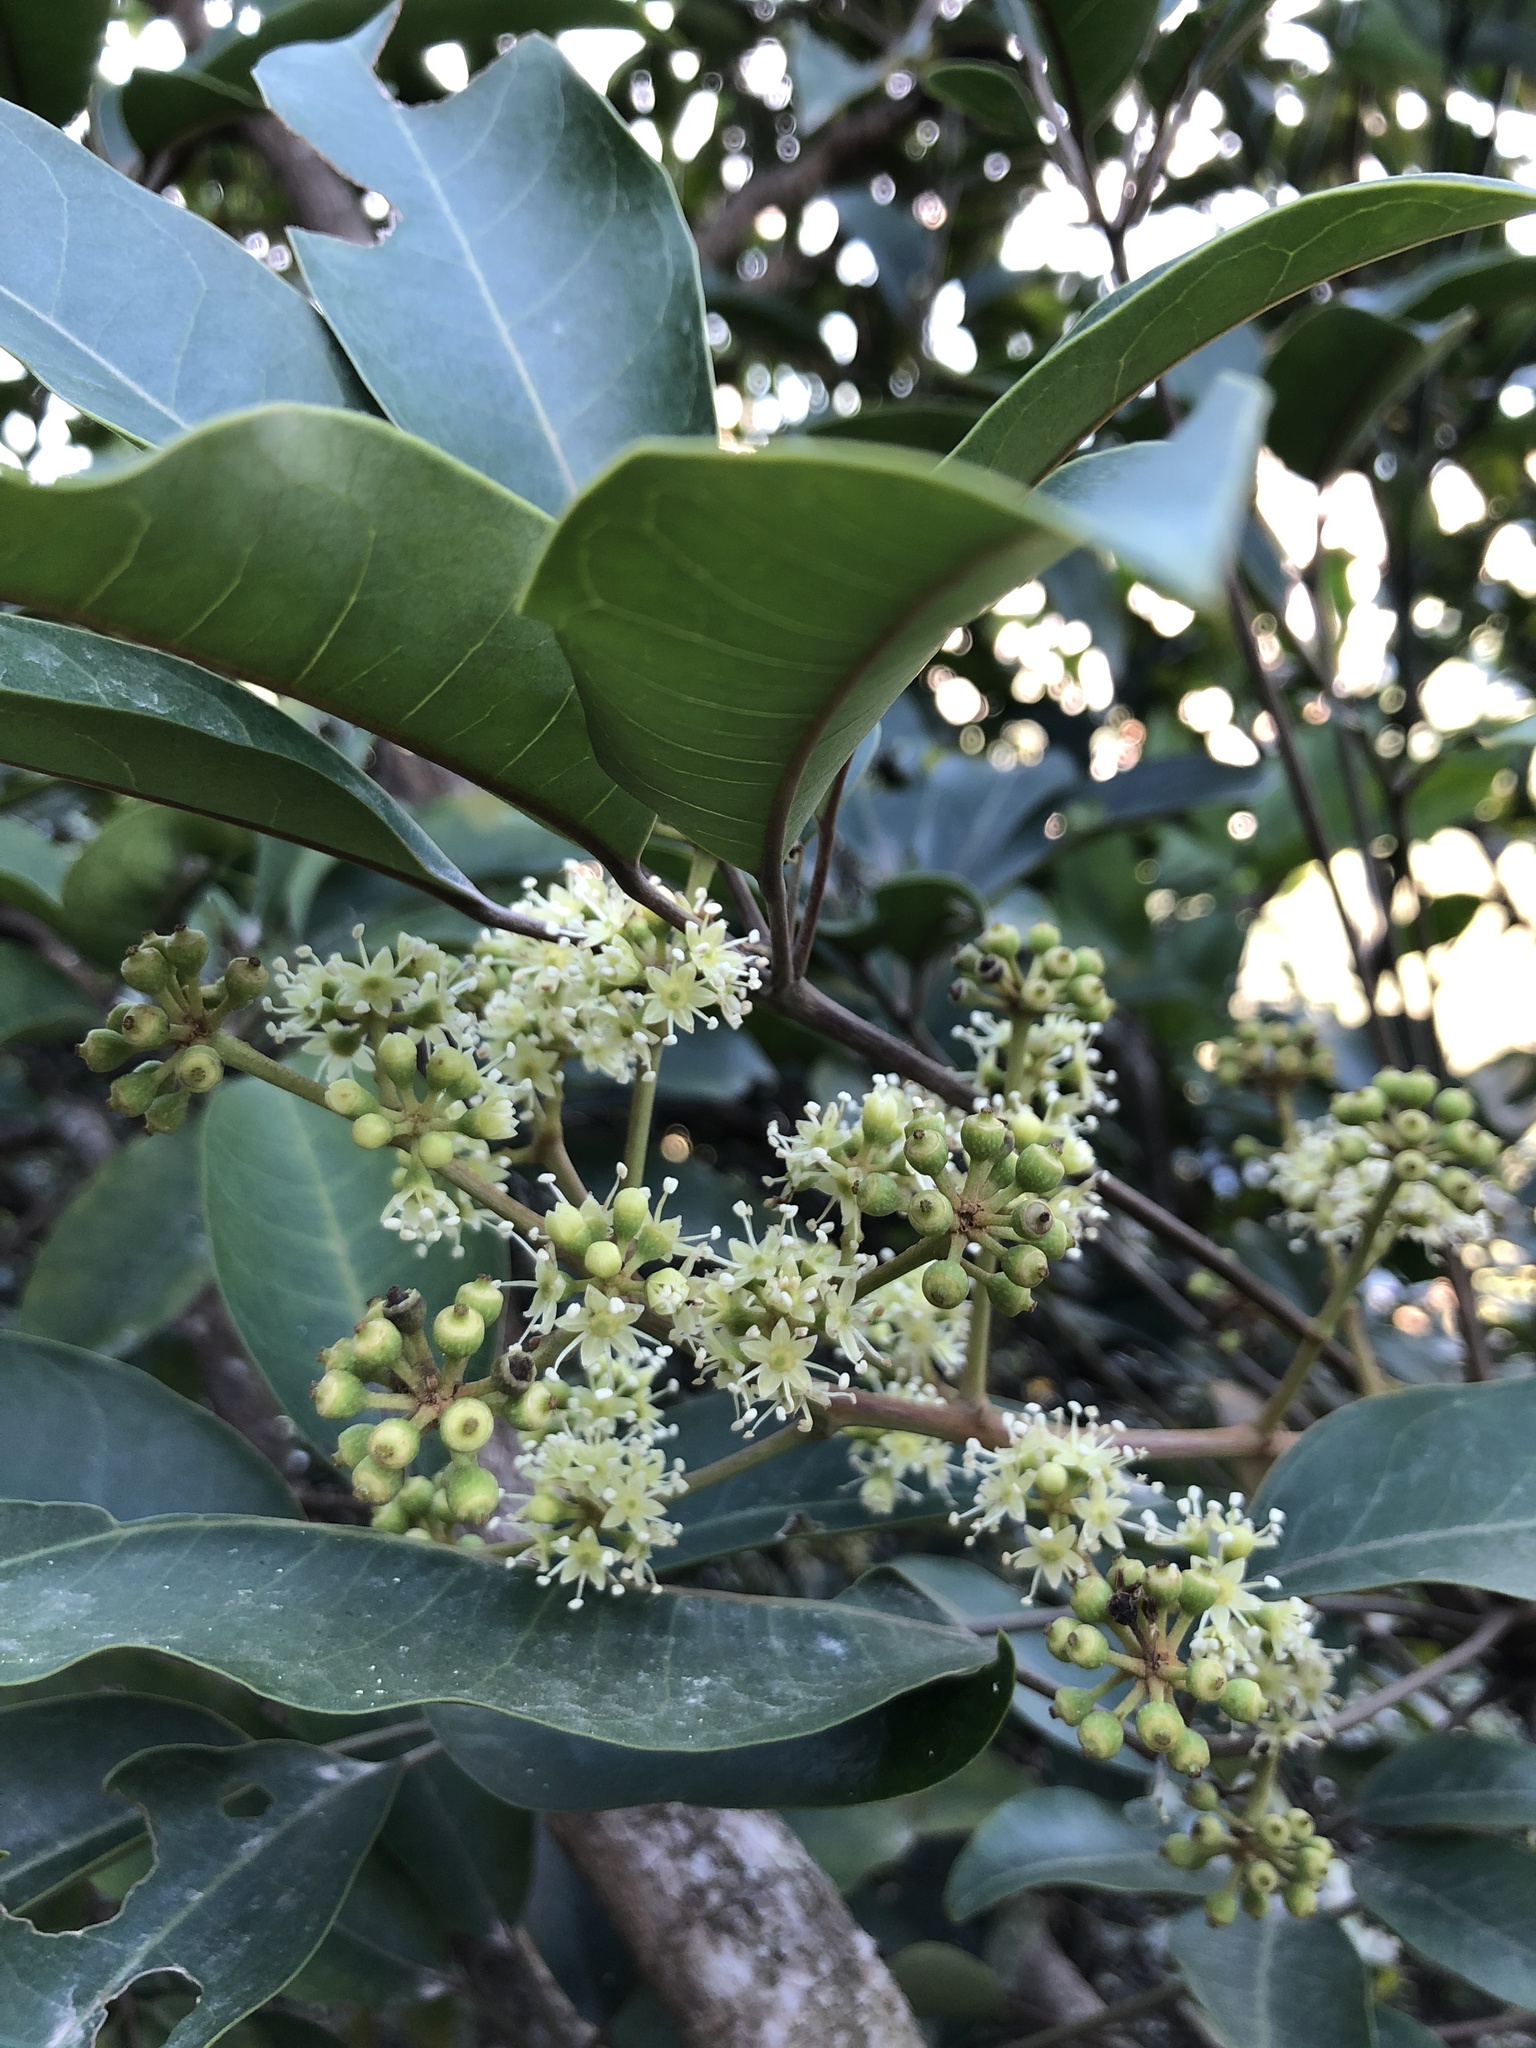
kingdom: Plantae
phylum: Tracheophyta
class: Magnoliopsida
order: Apiales
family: Araliaceae
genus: Heptapleurum
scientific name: Heptapleurum heptaphyllum
